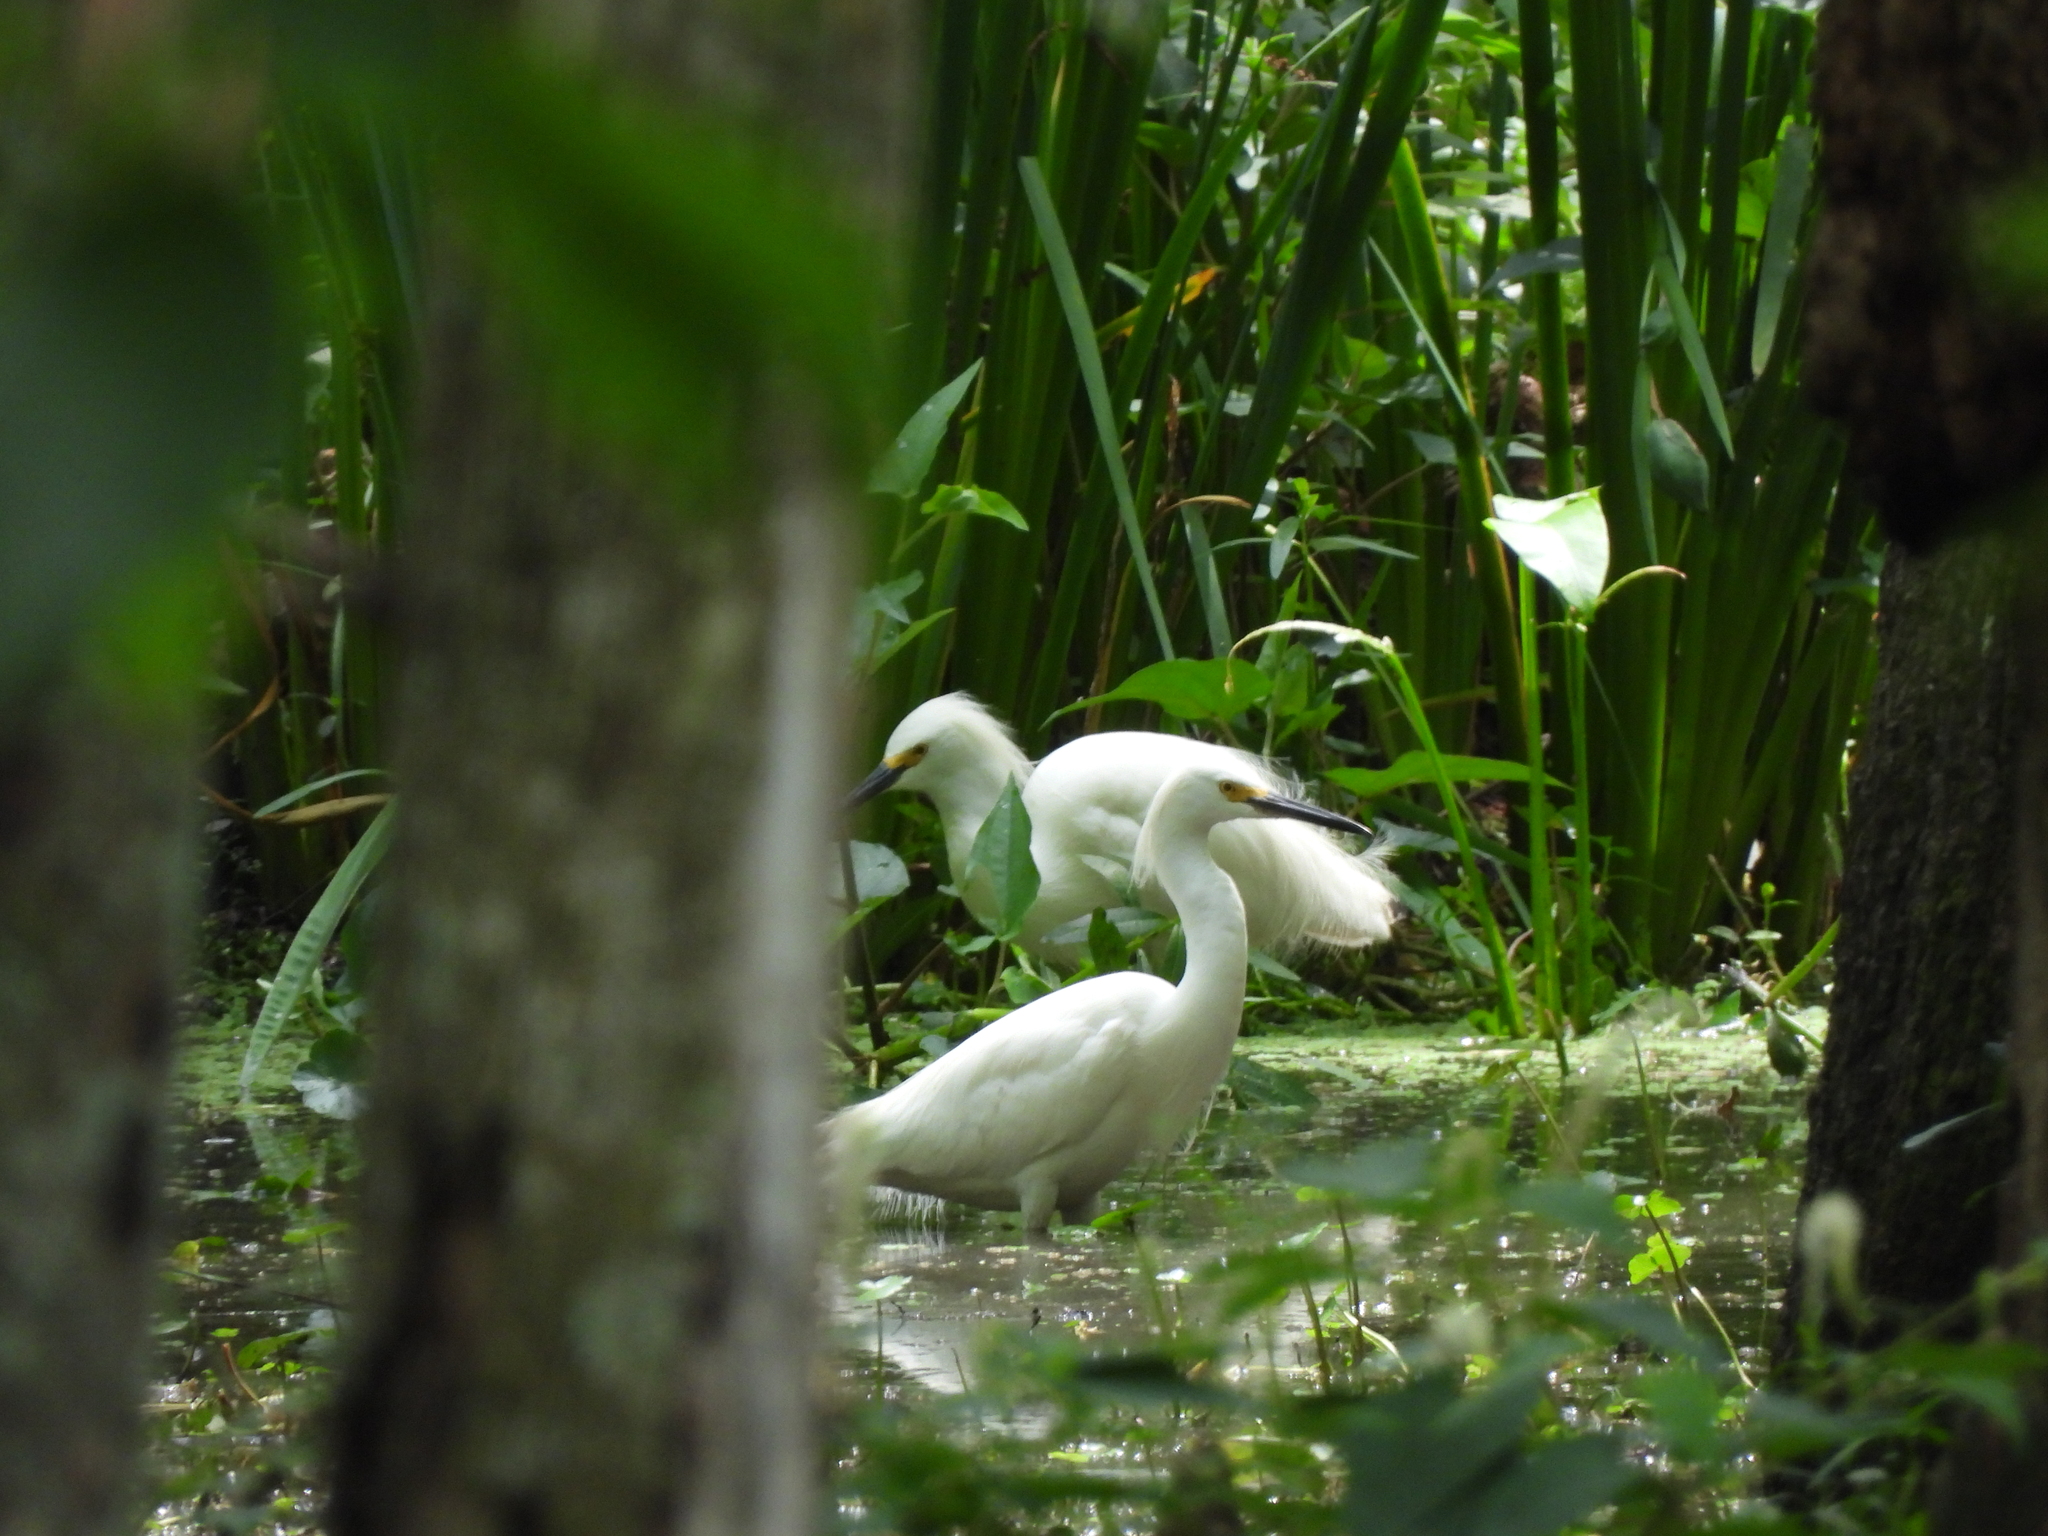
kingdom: Animalia
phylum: Chordata
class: Aves
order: Pelecaniformes
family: Ardeidae
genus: Egretta
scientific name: Egretta thula
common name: Snowy egret
